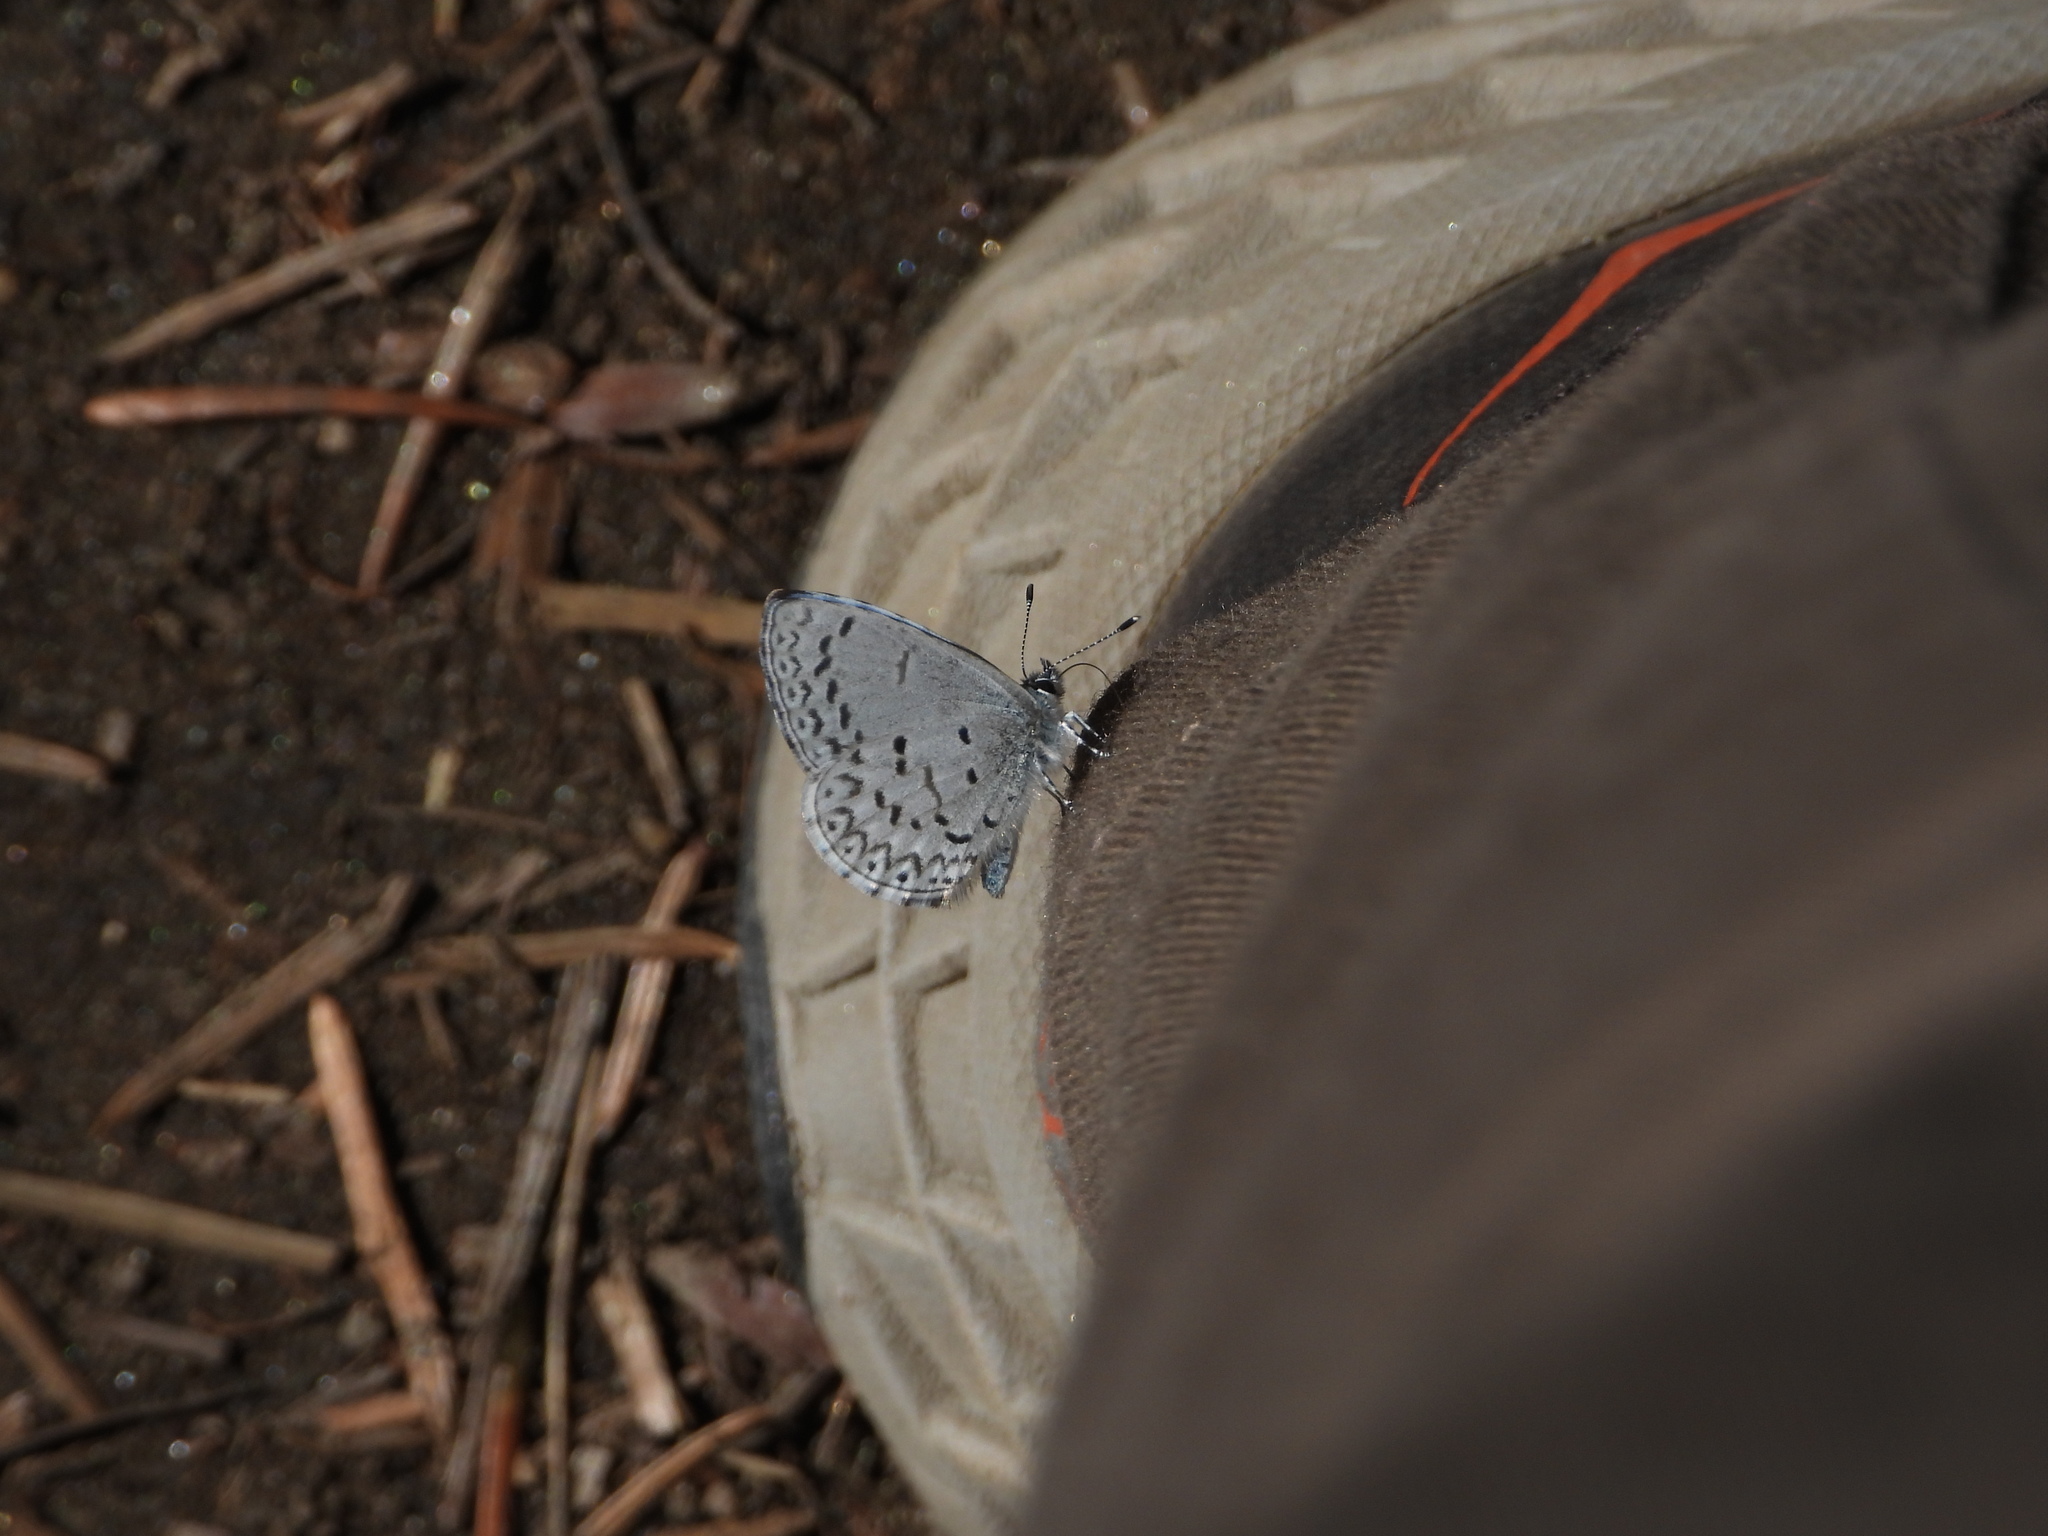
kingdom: Animalia
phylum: Arthropoda
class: Insecta
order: Lepidoptera
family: Lycaenidae
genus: Celastrina
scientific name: Celastrina ladon
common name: Spring azure
